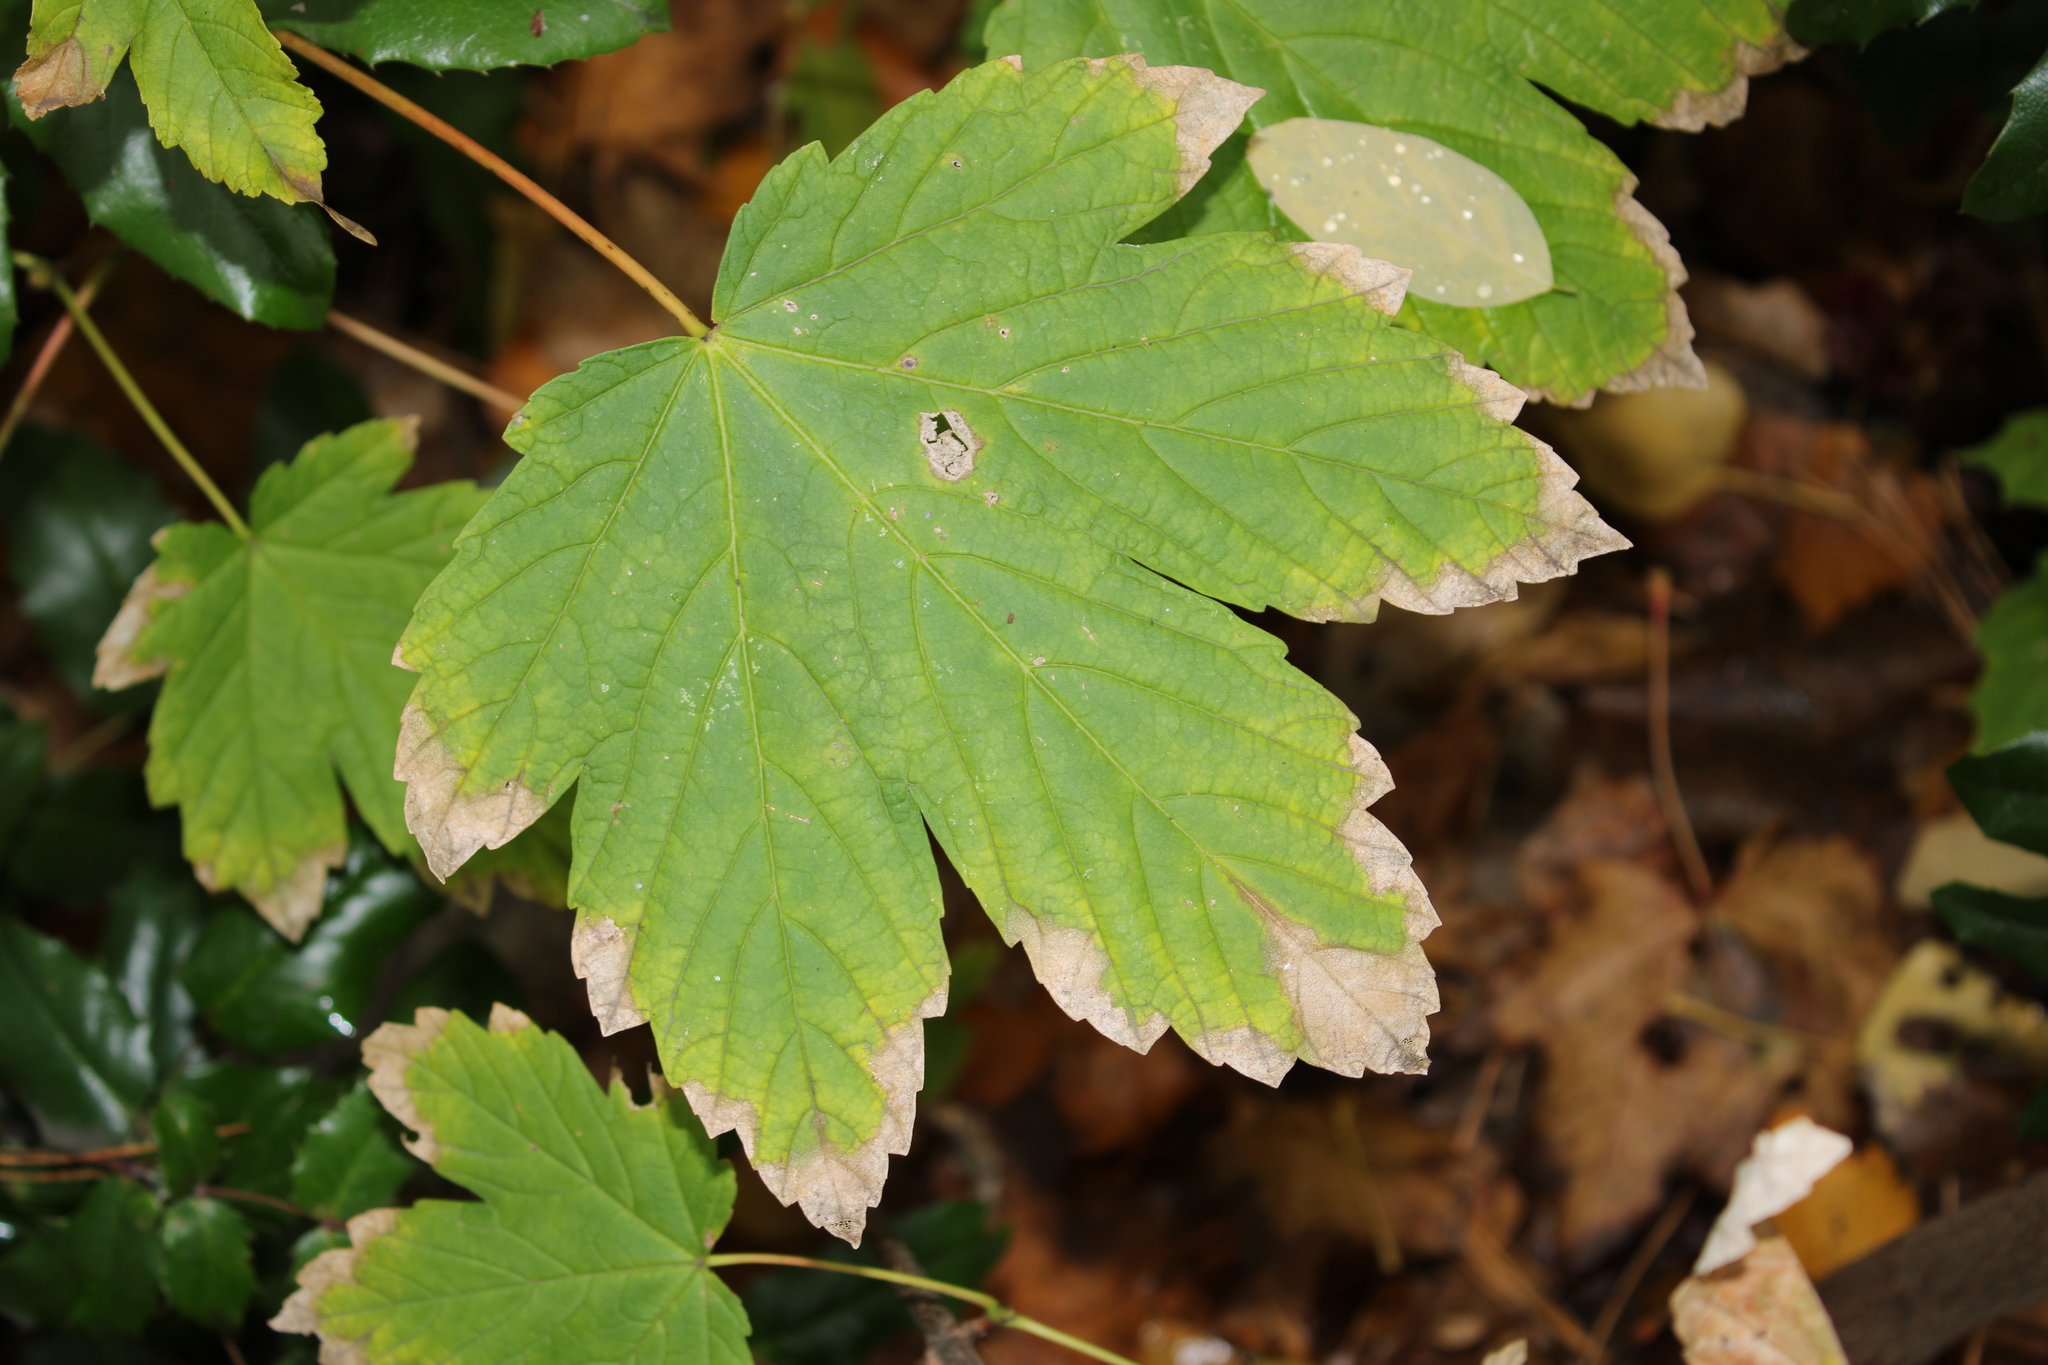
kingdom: Plantae
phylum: Tracheophyta
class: Magnoliopsida
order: Sapindales
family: Sapindaceae
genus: Acer
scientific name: Acer pseudoplatanus
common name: Sycamore
